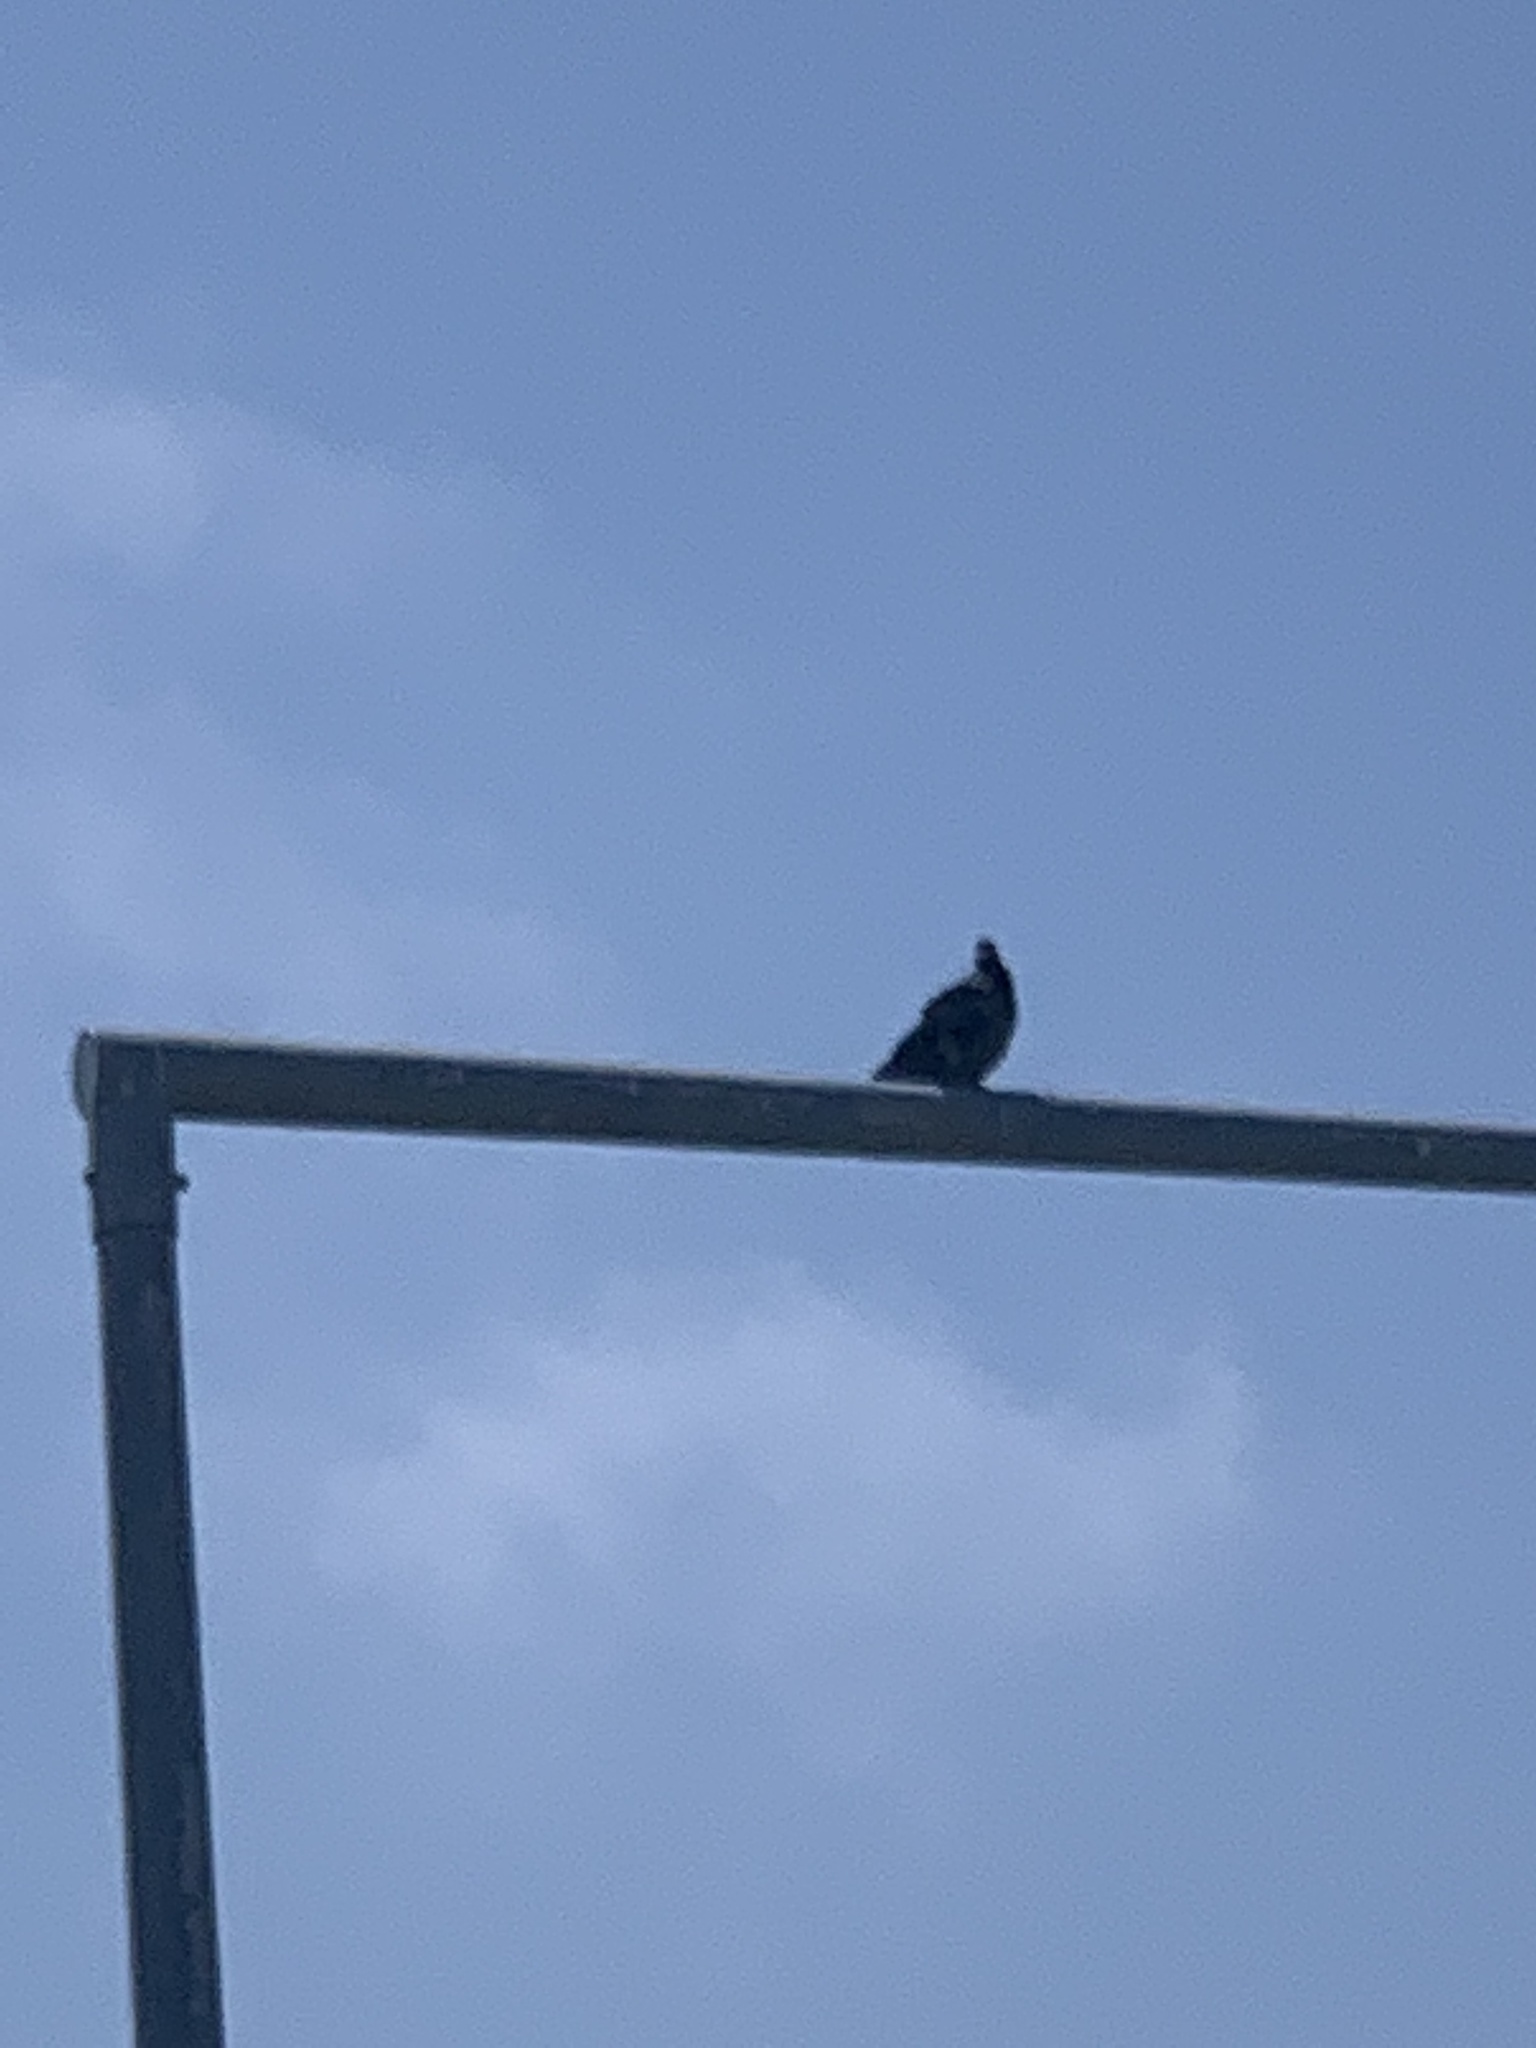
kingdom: Animalia
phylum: Chordata
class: Aves
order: Columbiformes
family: Columbidae
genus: Columba
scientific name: Columba livia
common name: Rock pigeon
